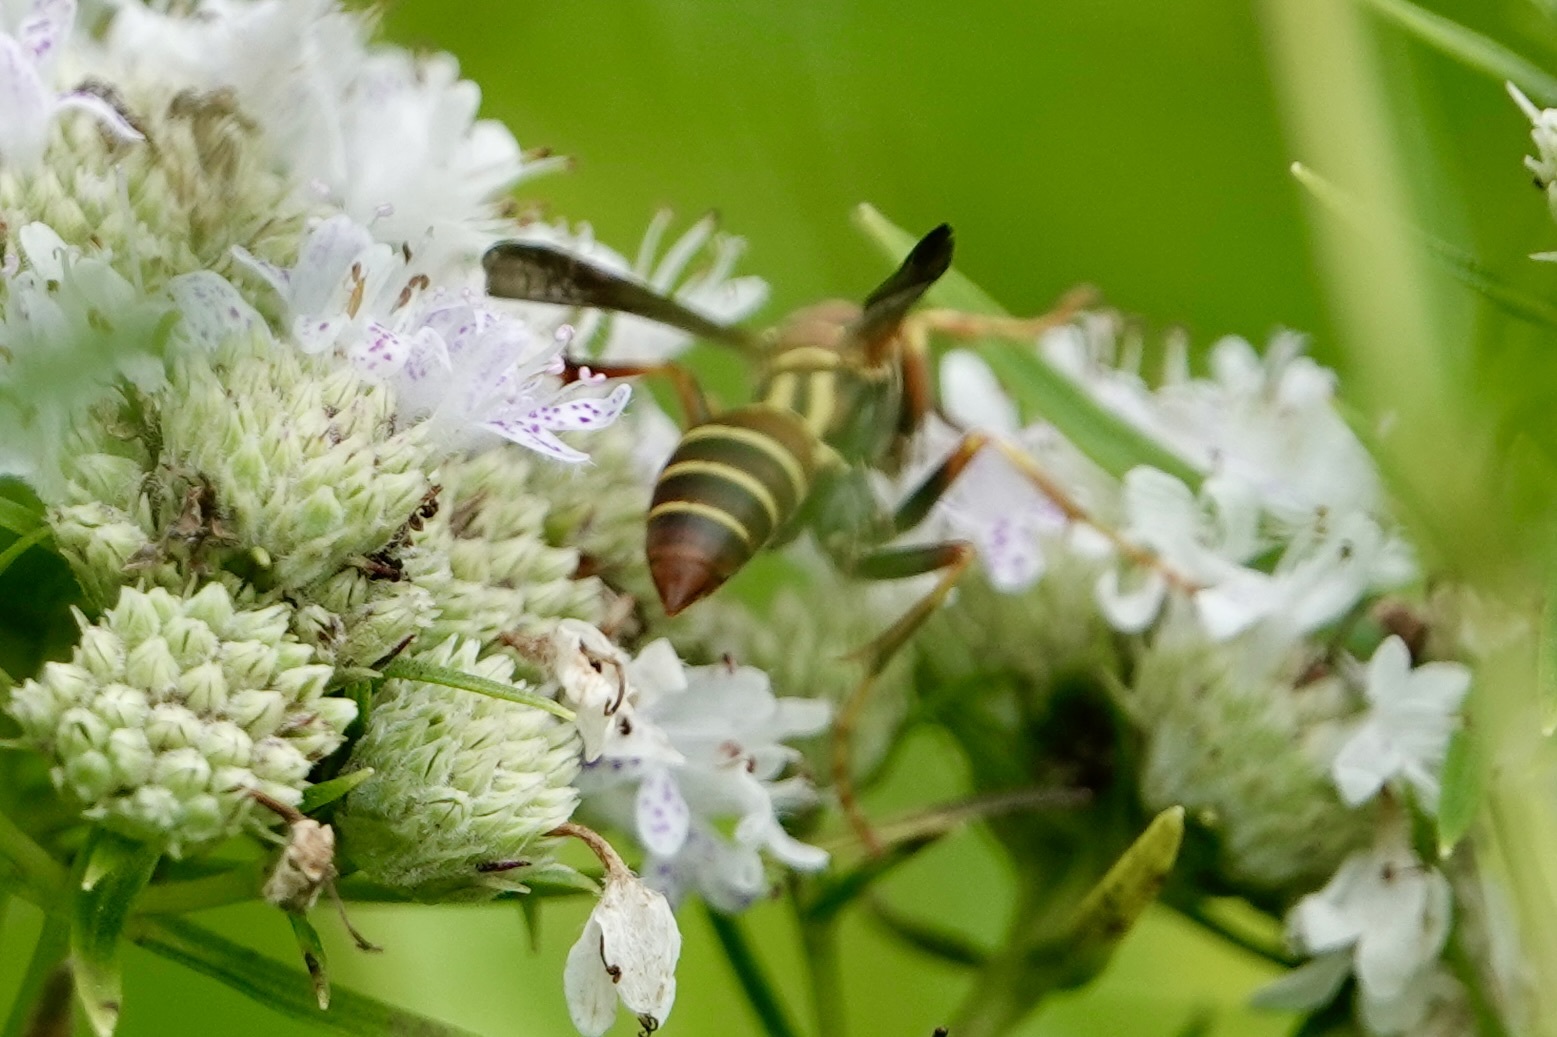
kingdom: Animalia
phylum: Arthropoda
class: Insecta
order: Hymenoptera
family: Eumenidae
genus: Polistes
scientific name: Polistes dorsalis
